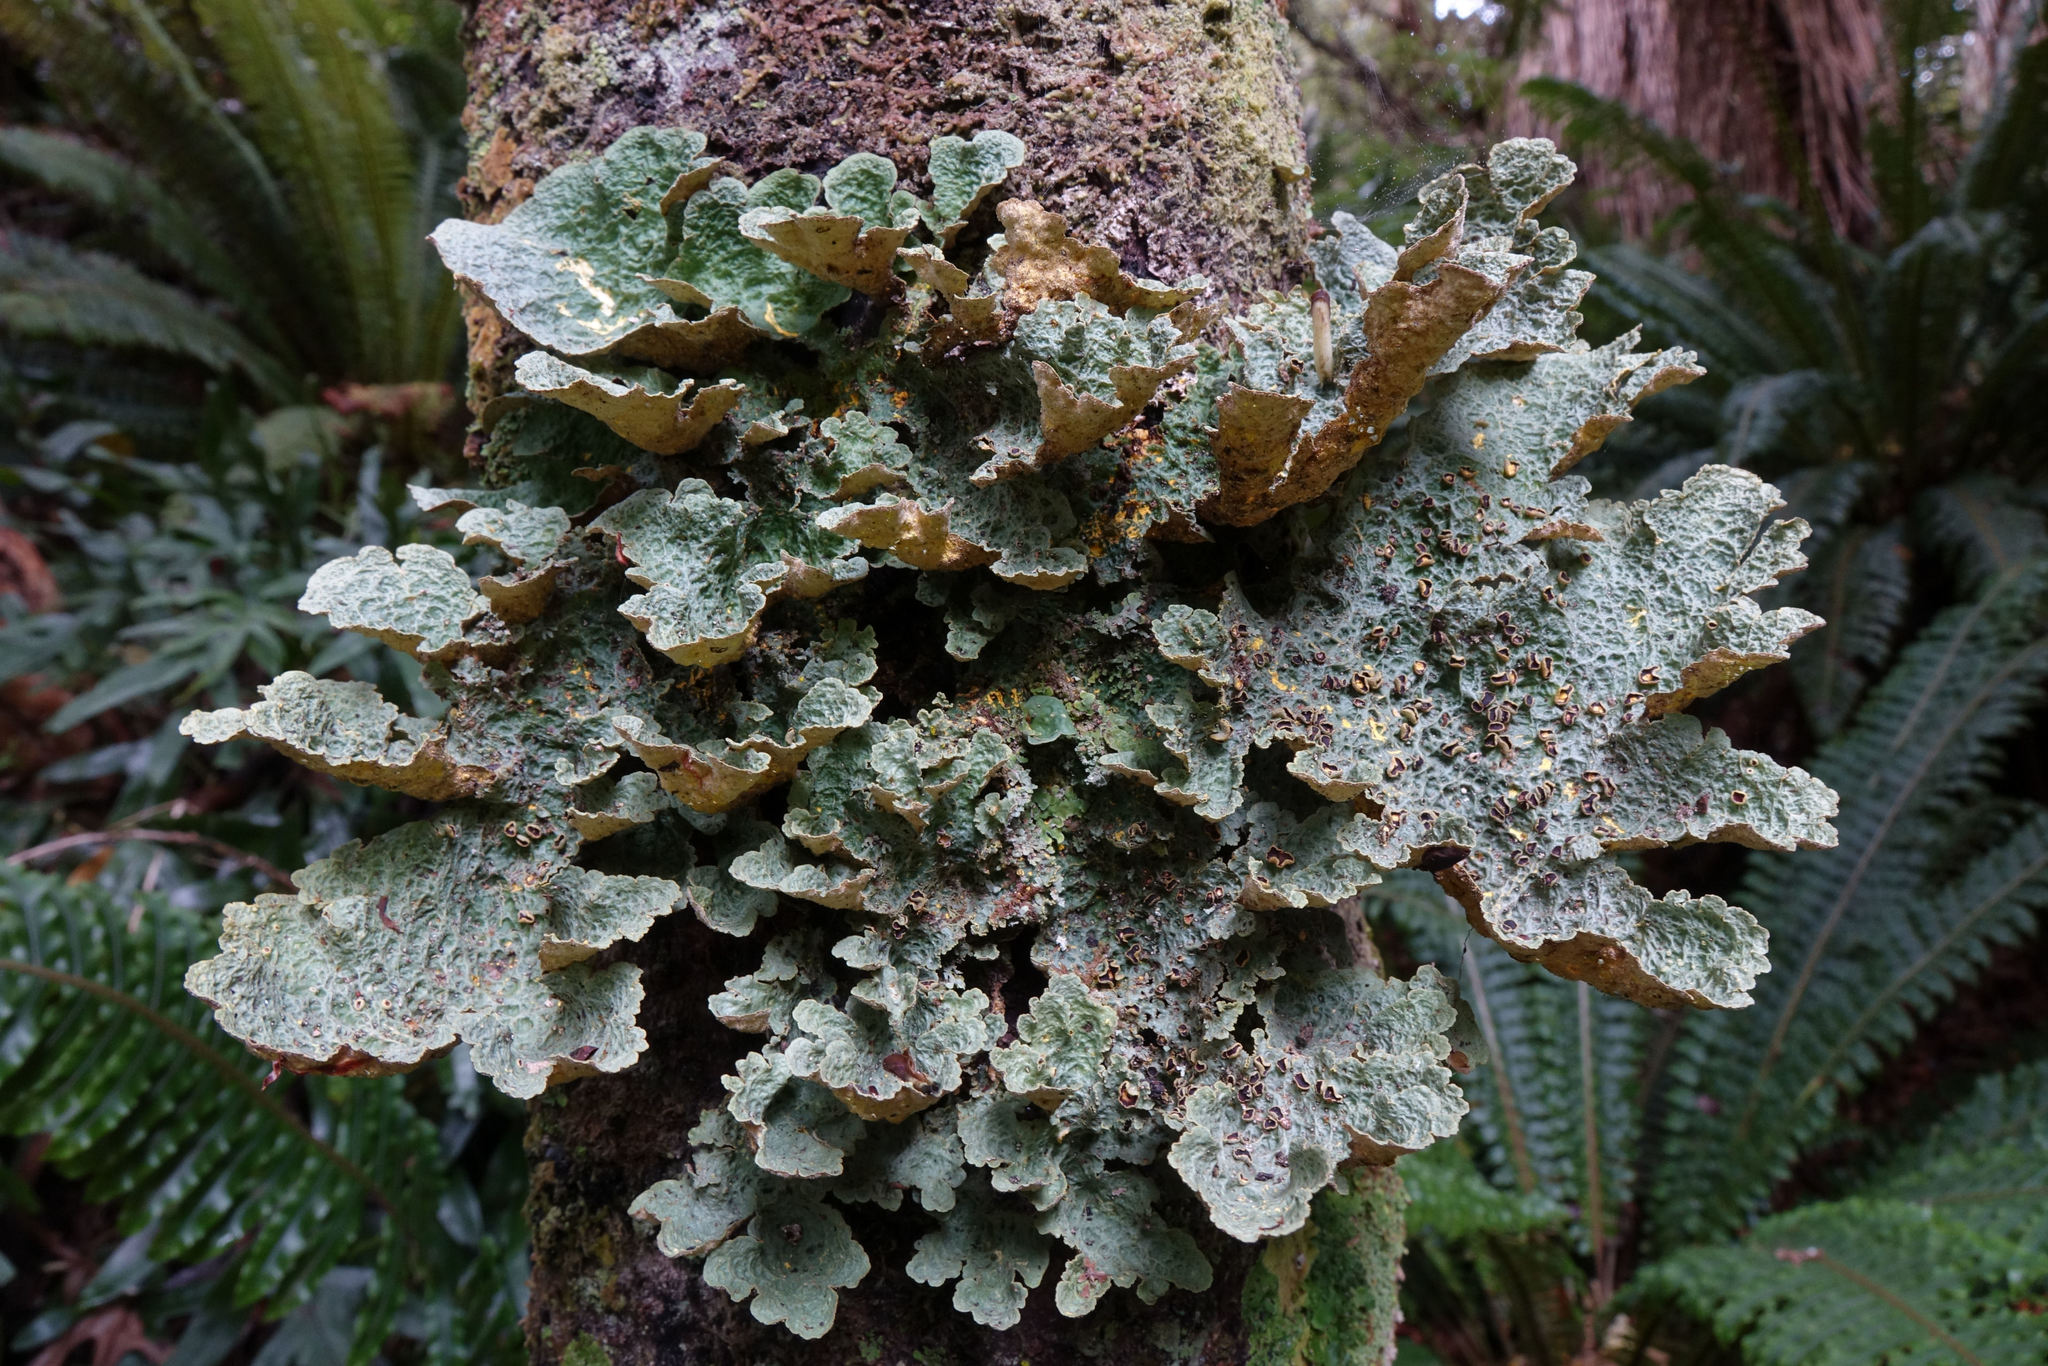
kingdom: Fungi
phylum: Ascomycota
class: Lecanoromycetes
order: Peltigerales
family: Lobariaceae
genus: Yarrumia
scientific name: Yarrumia coronata
